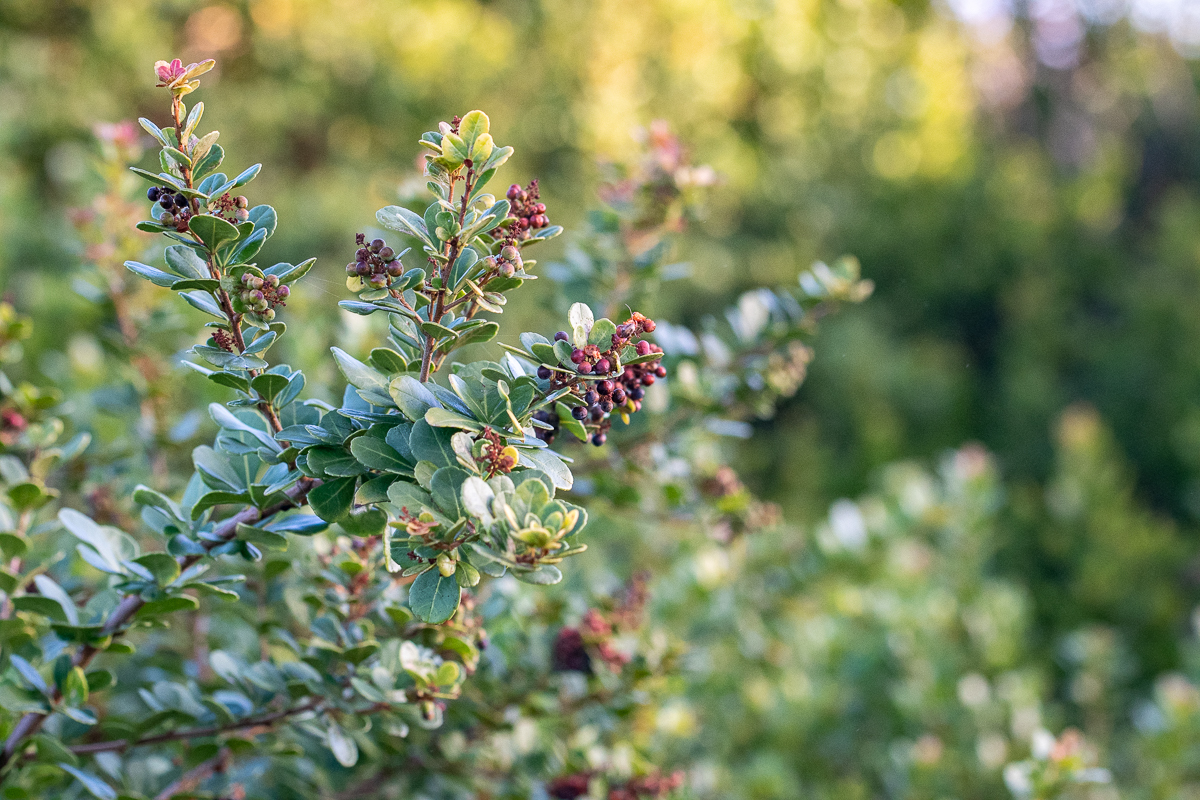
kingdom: Plantae
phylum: Tracheophyta
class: Magnoliopsida
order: Sapindales
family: Anacardiaceae
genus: Searsia
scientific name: Searsia crenata
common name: Crowberry
